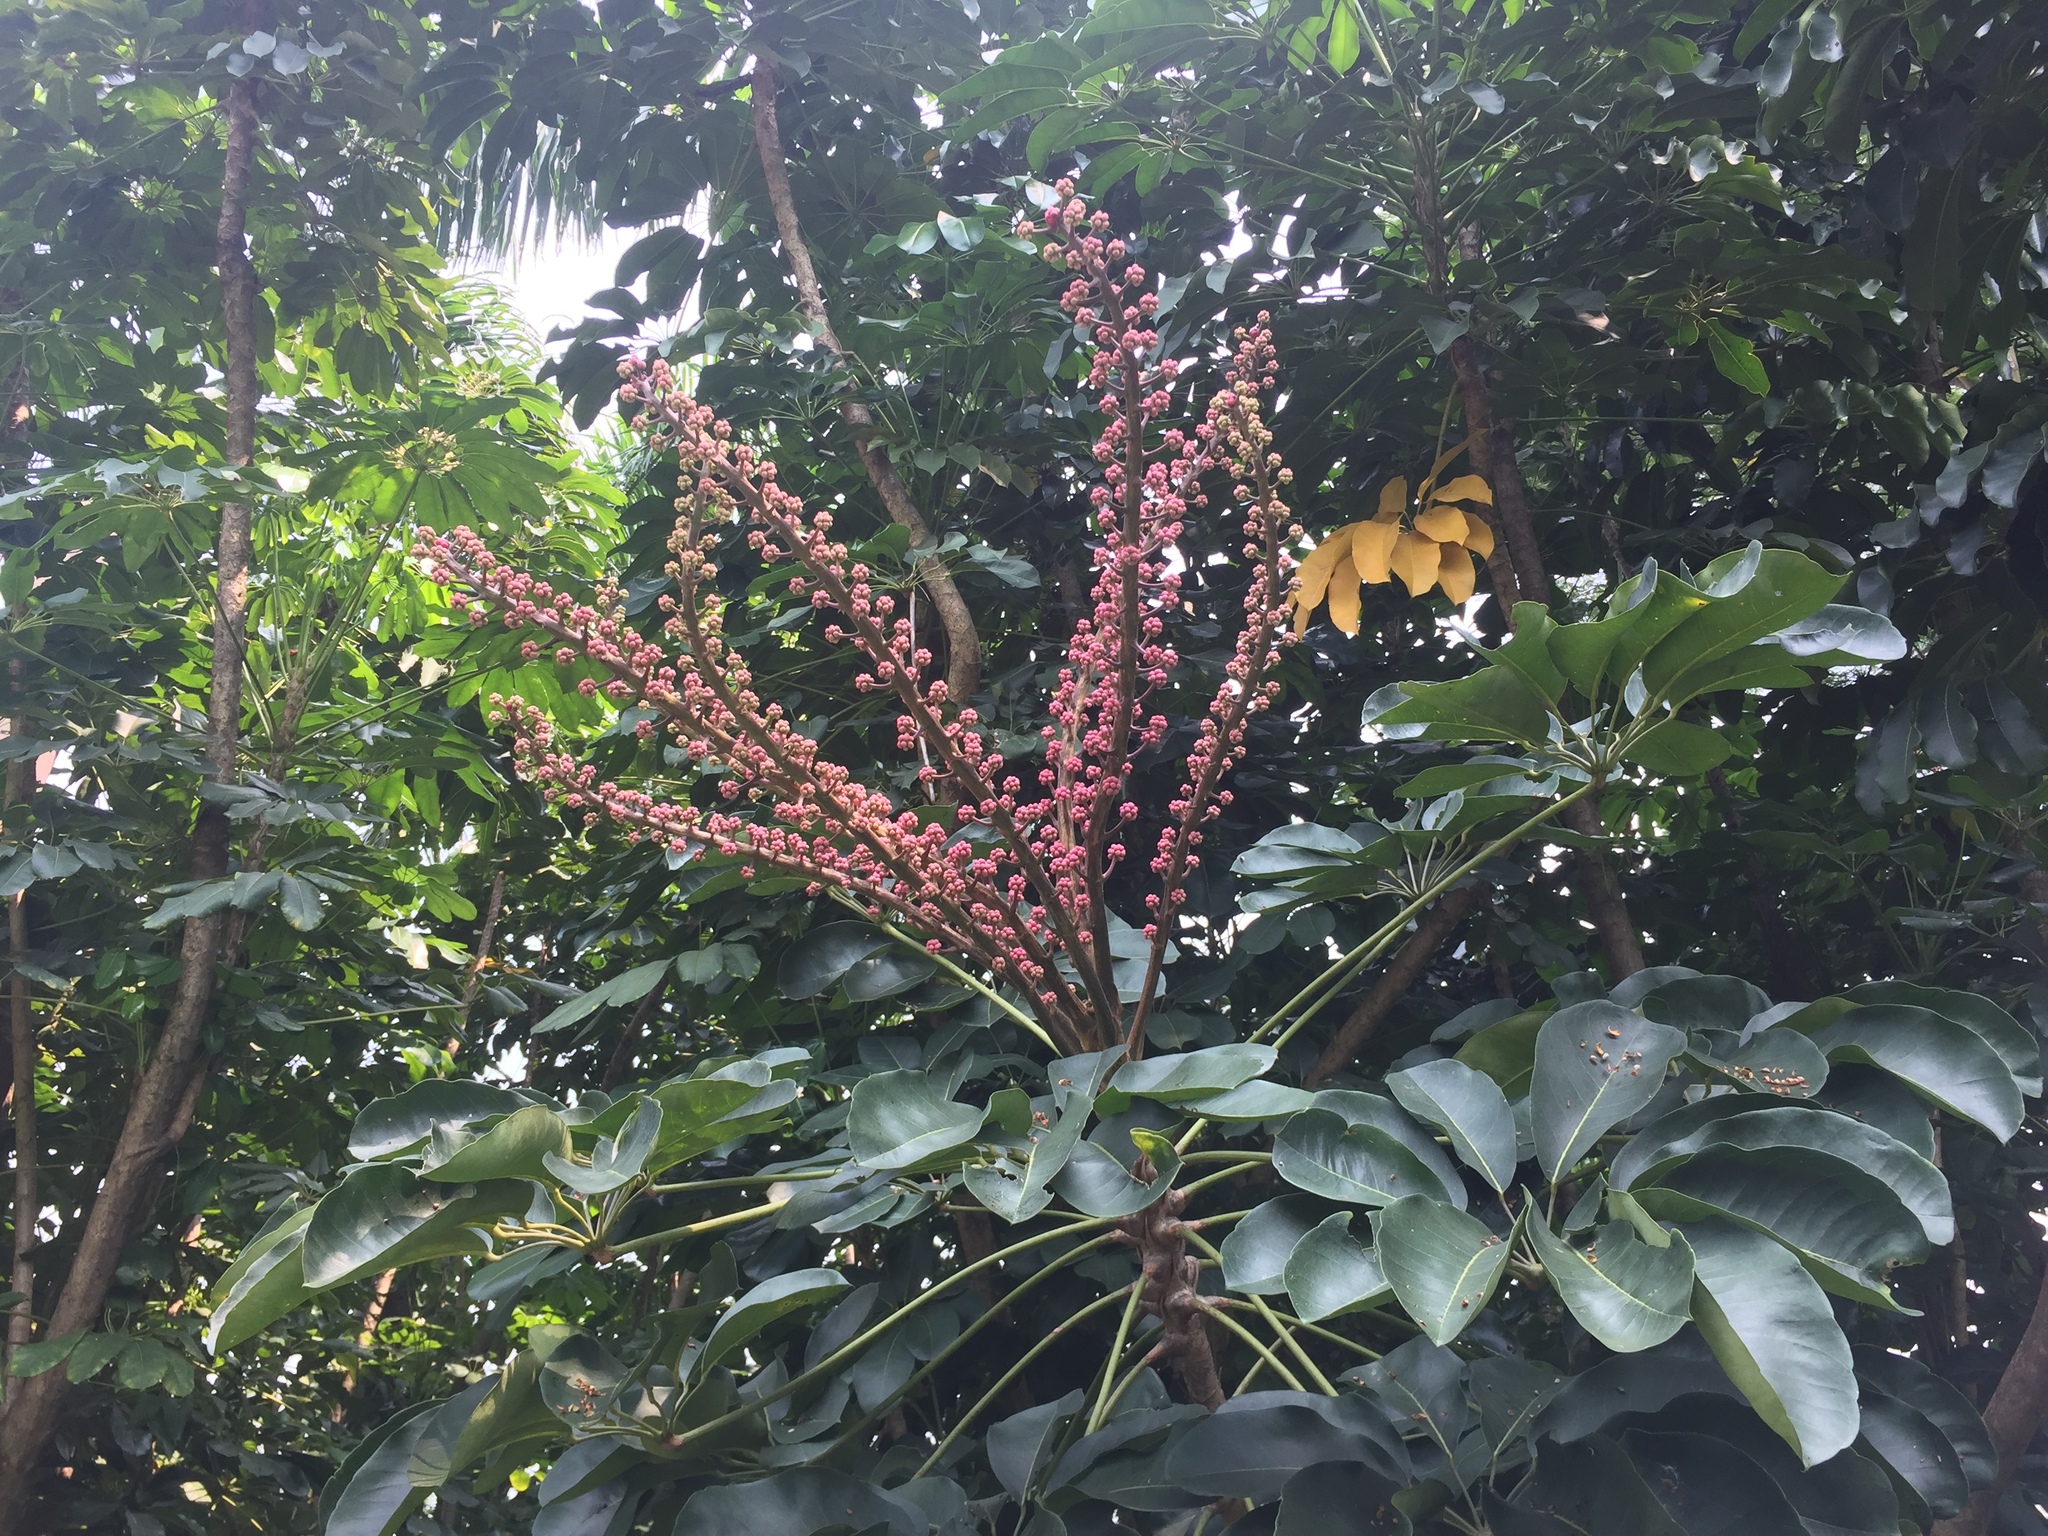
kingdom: Plantae
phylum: Tracheophyta
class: Magnoliopsida
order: Apiales
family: Araliaceae
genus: Heptapleurum
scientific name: Heptapleurum actinophyllum
